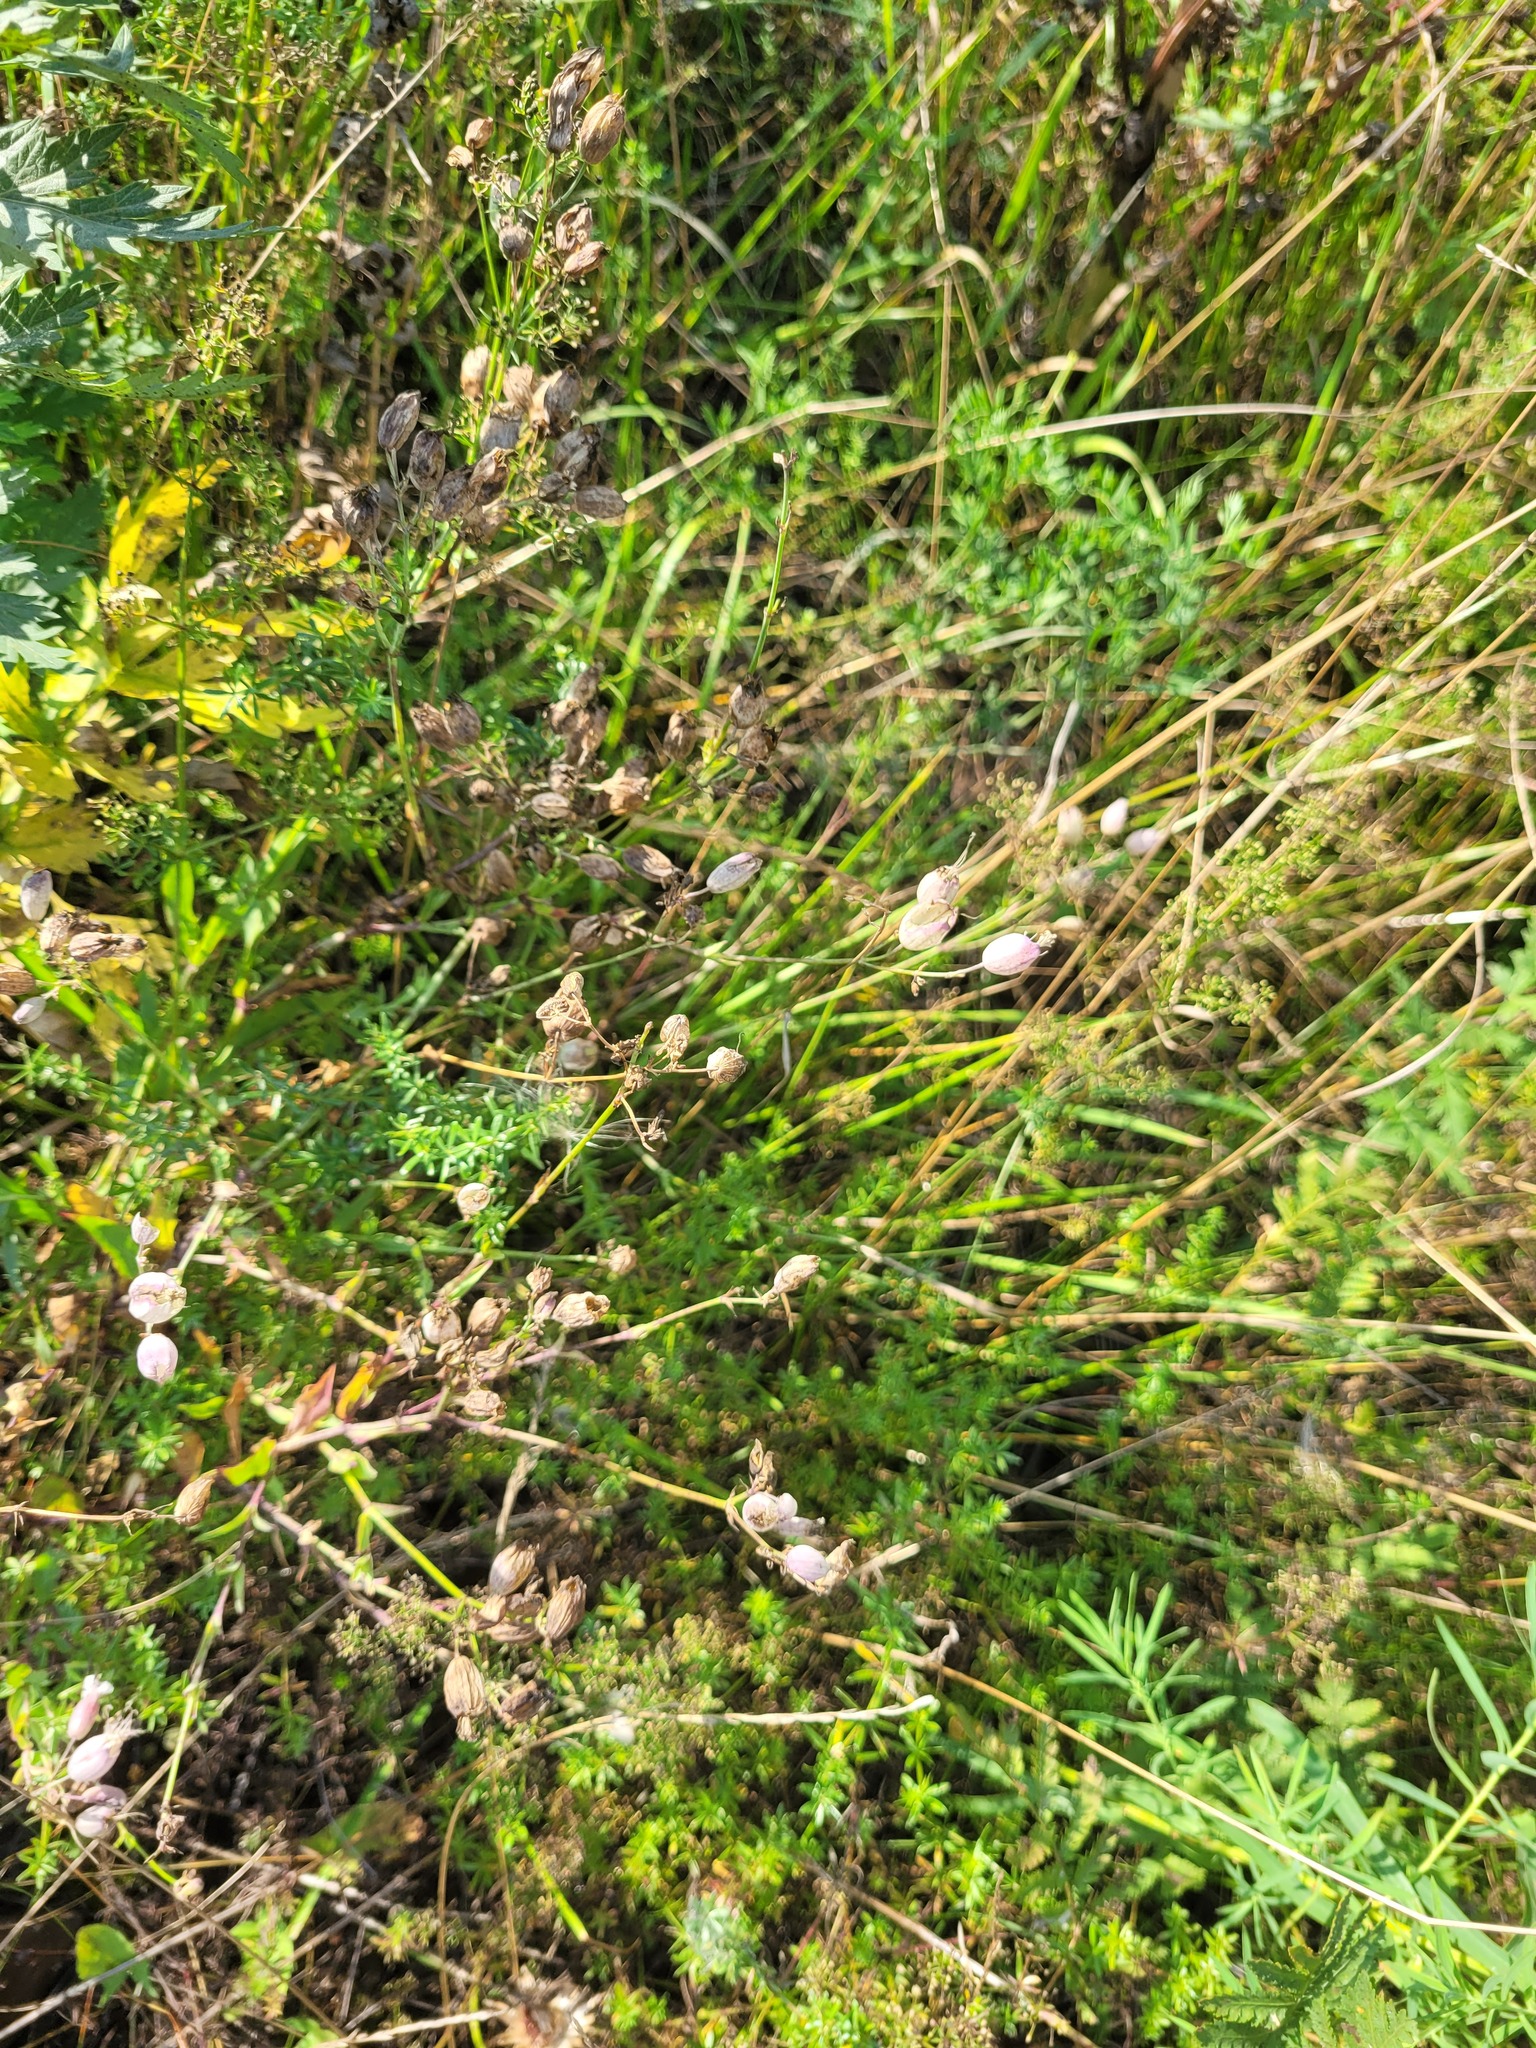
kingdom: Plantae
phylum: Tracheophyta
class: Magnoliopsida
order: Caryophyllales
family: Caryophyllaceae
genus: Silene
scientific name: Silene vulgaris
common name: Bladder campion
